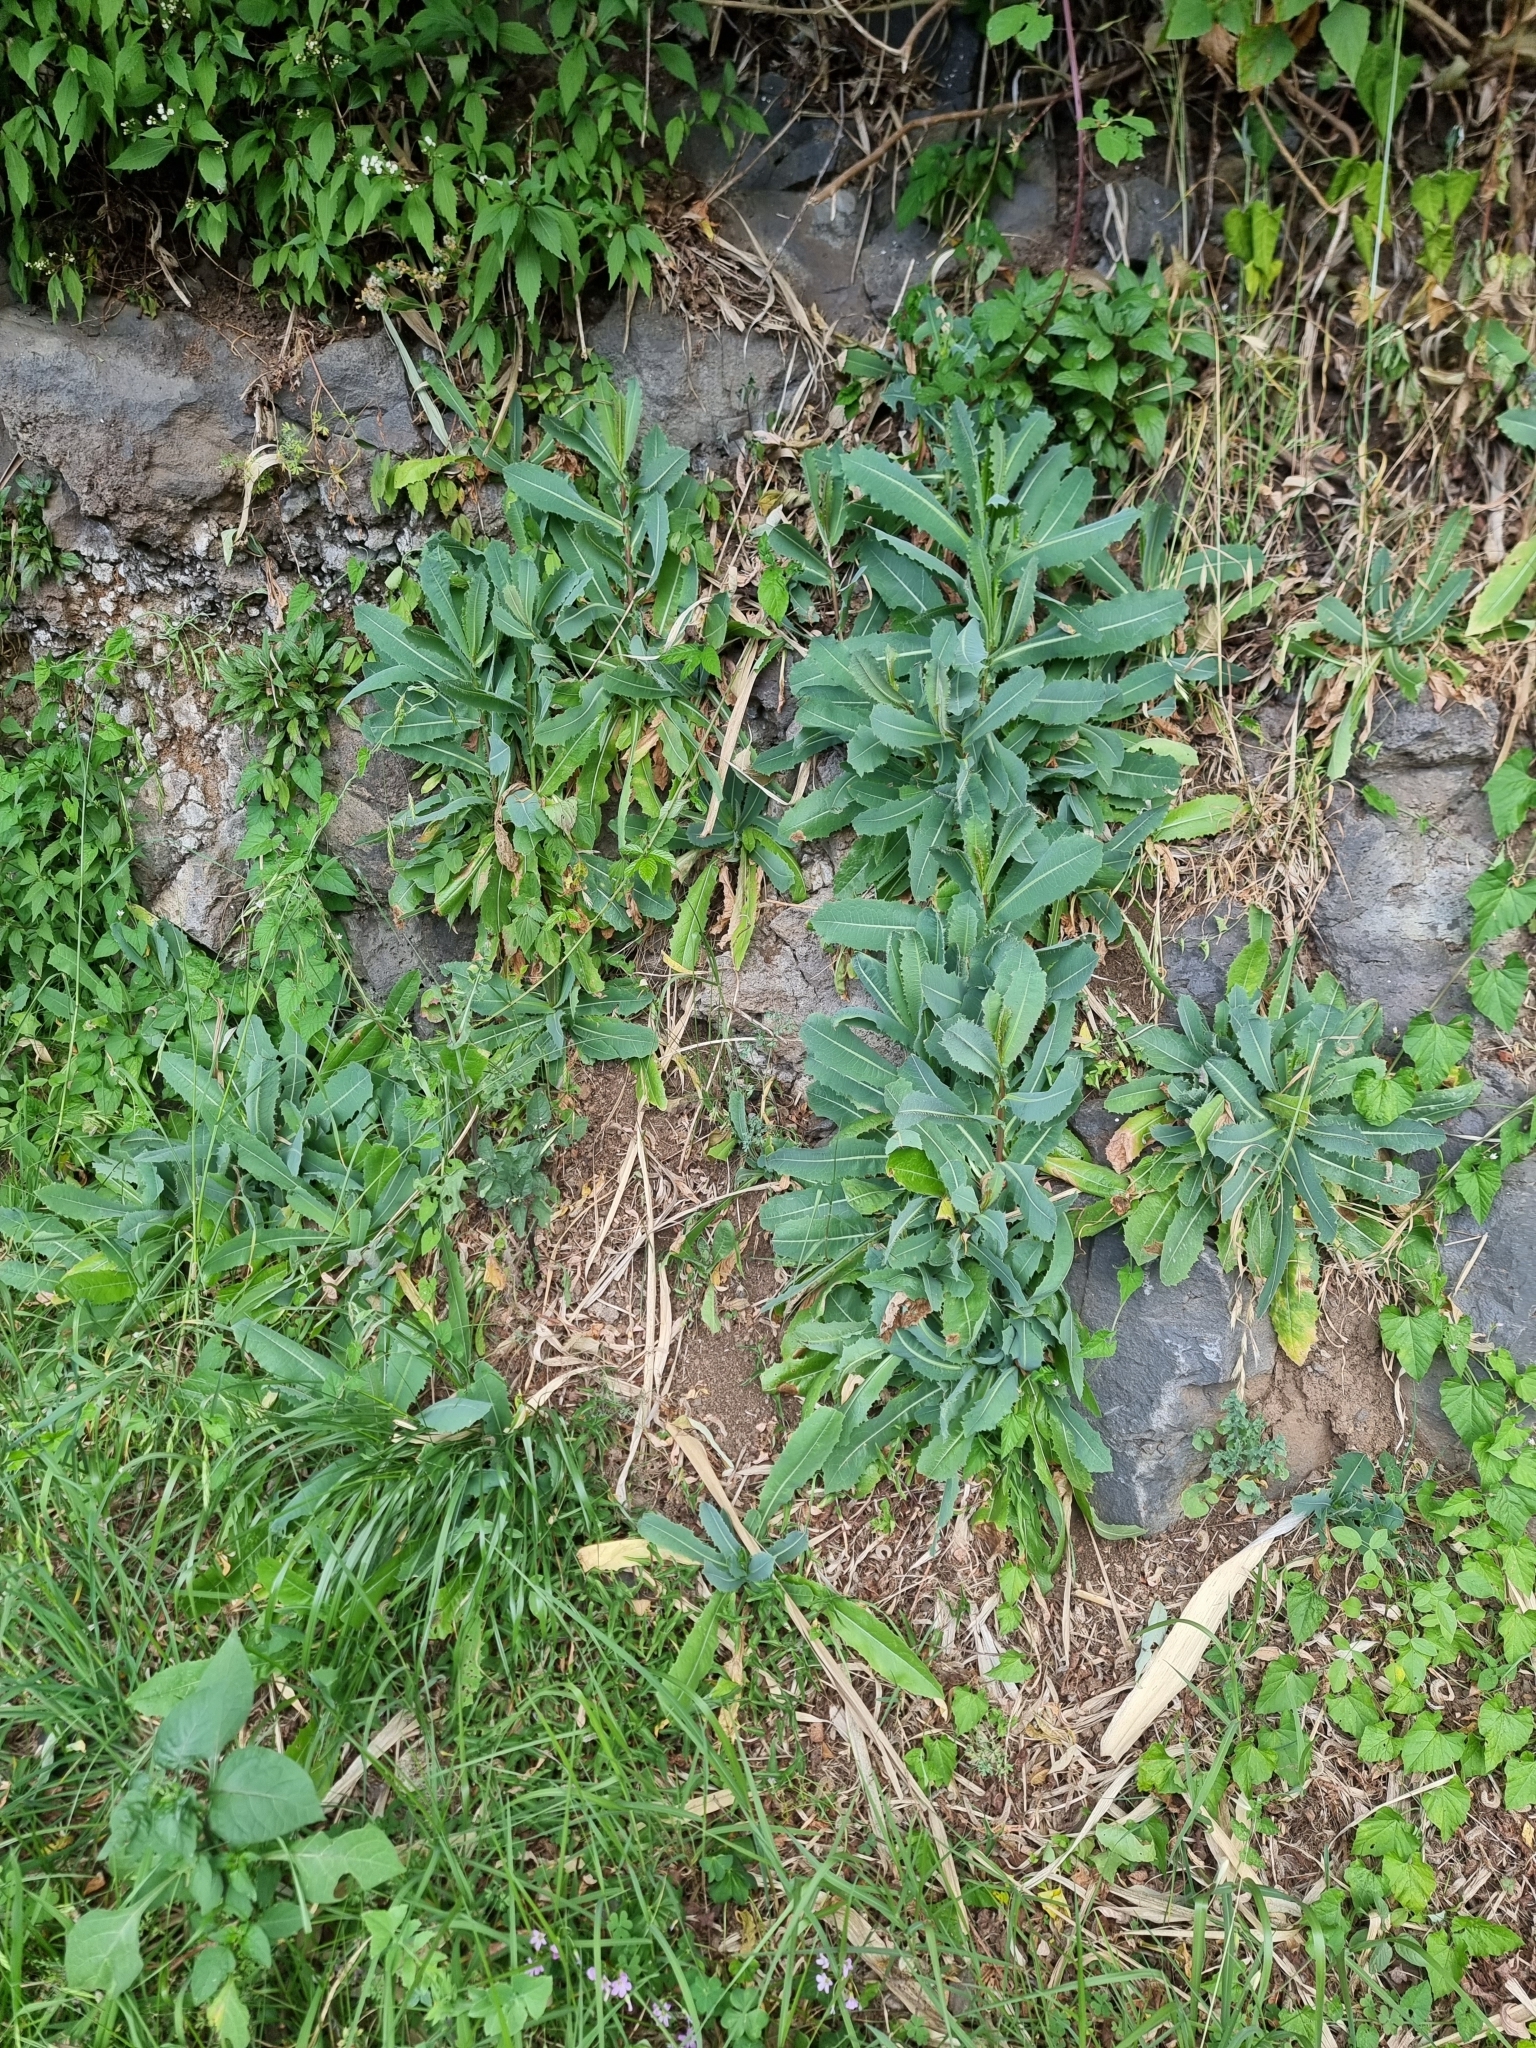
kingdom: Plantae
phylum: Tracheophyta
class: Magnoliopsida
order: Asterales
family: Asteraceae
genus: Lactuca
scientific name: Lactuca serriola
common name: Prickly lettuce
